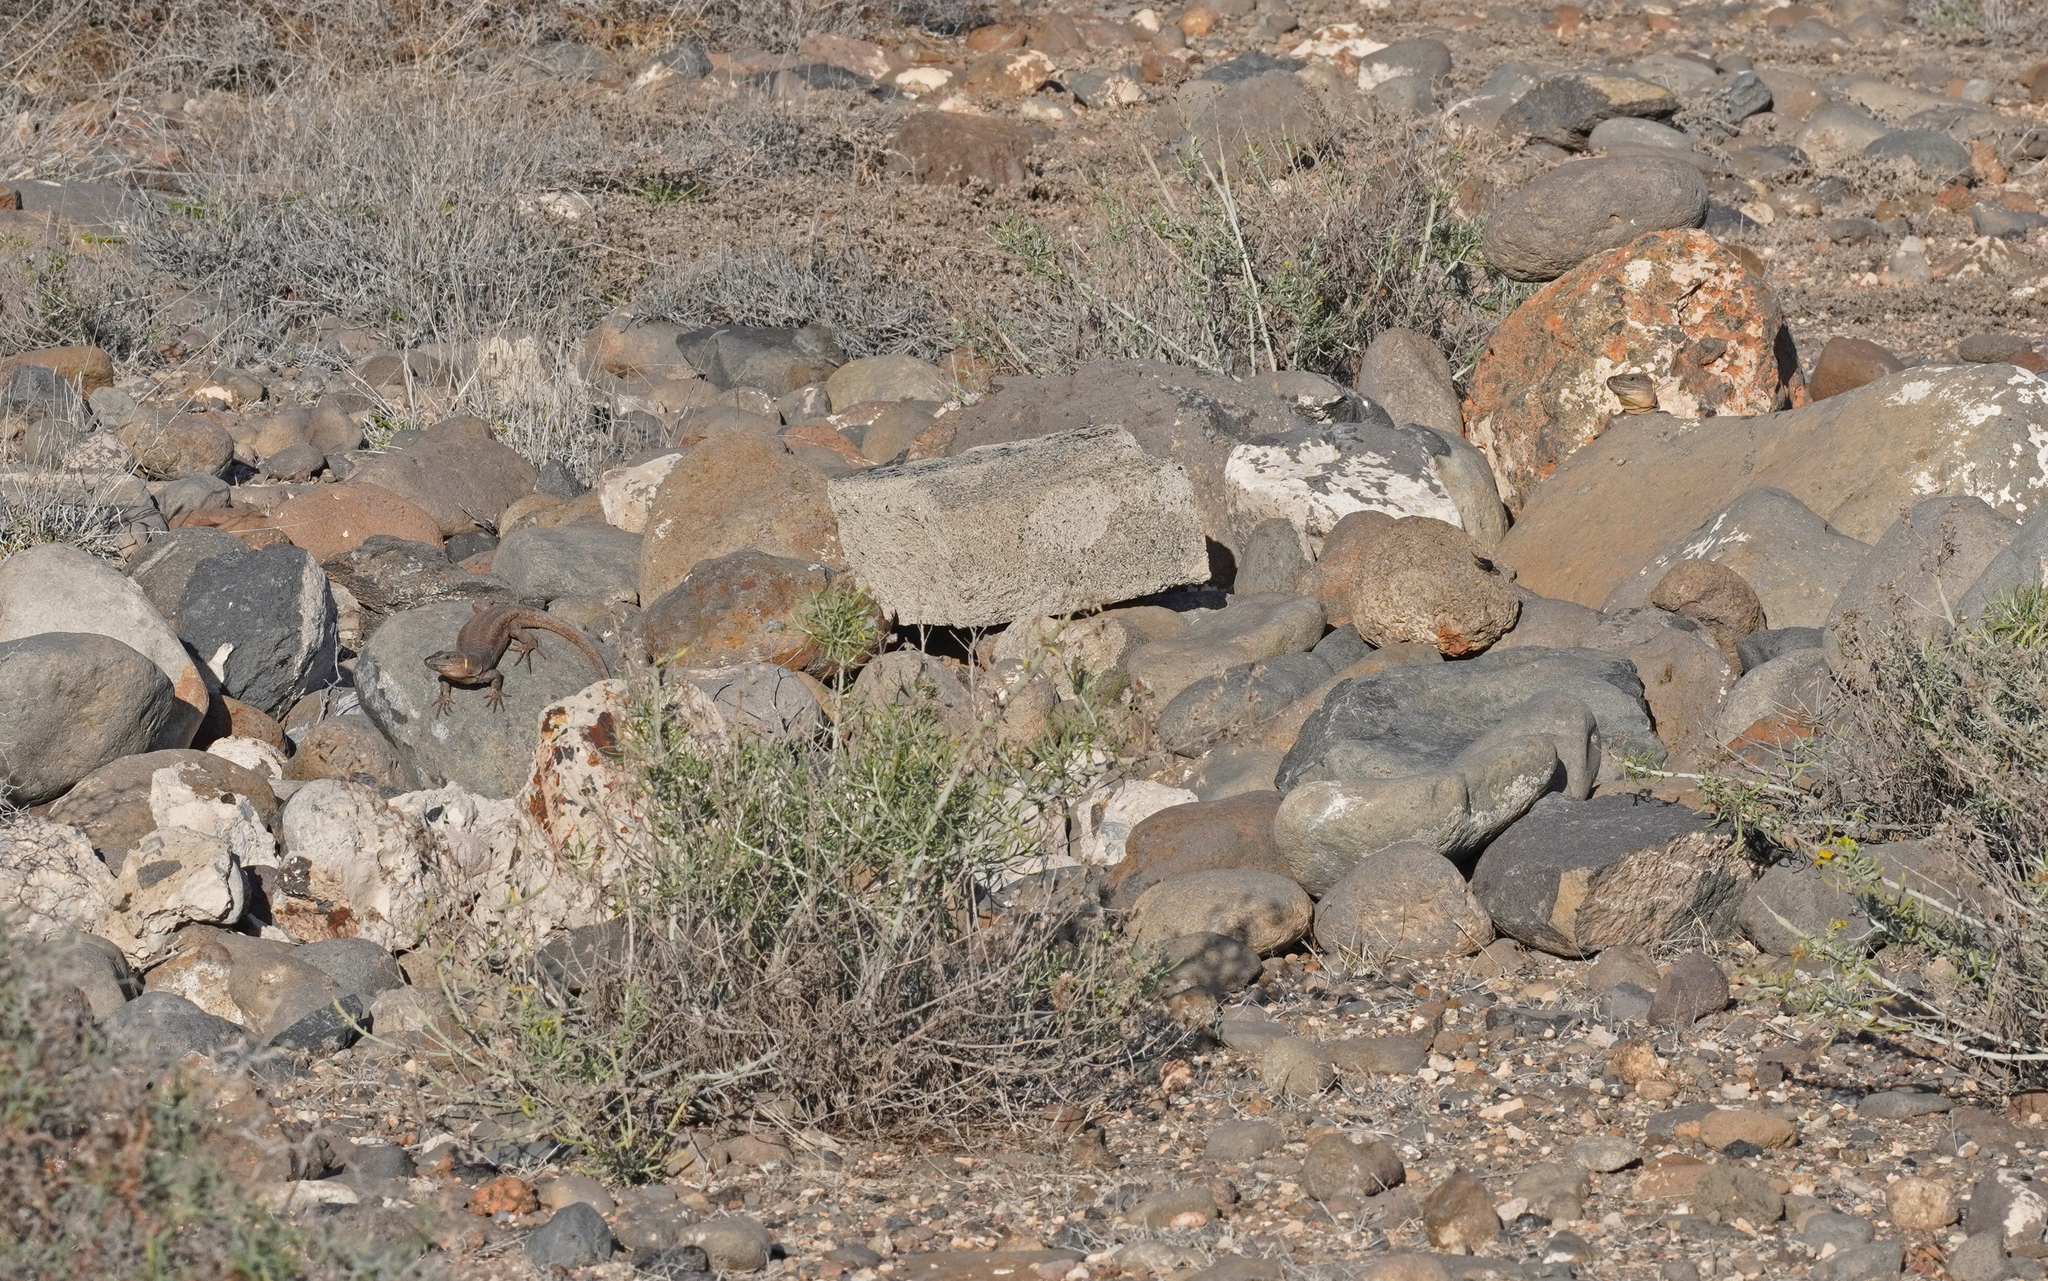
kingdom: Animalia
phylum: Chordata
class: Squamata
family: Lacertidae
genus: Gallotia
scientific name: Gallotia stehlini
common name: Gran canaria giant lizard
